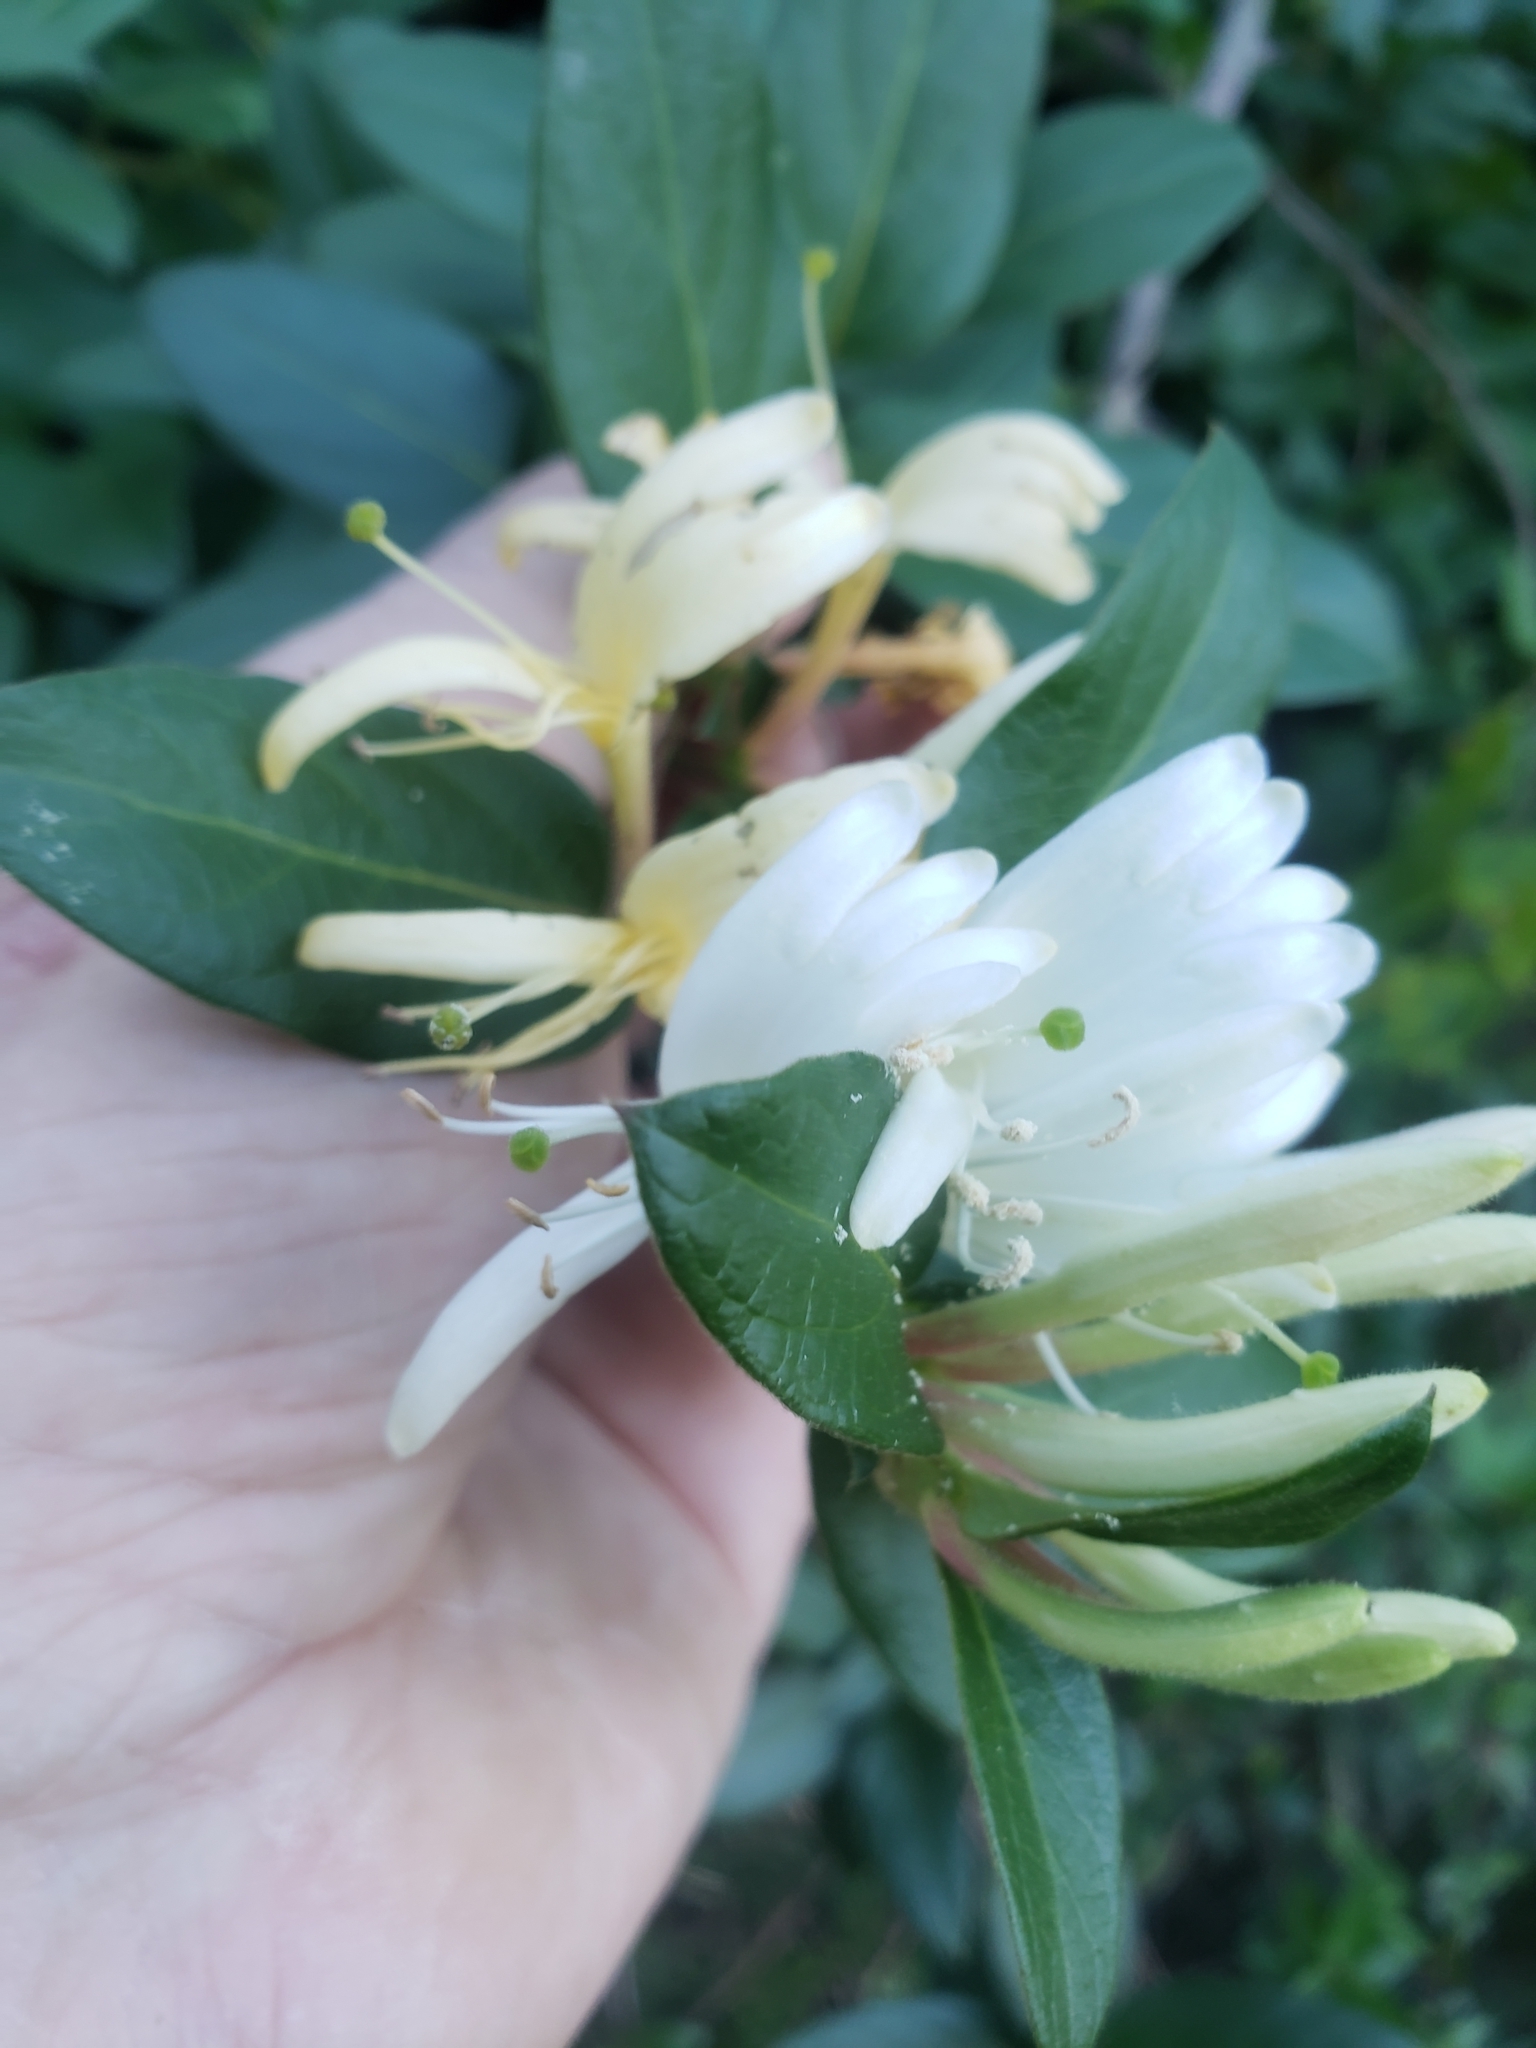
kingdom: Plantae
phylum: Tracheophyta
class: Magnoliopsida
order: Dipsacales
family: Caprifoliaceae
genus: Lonicera
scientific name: Lonicera japonica
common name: Japanese honeysuckle
